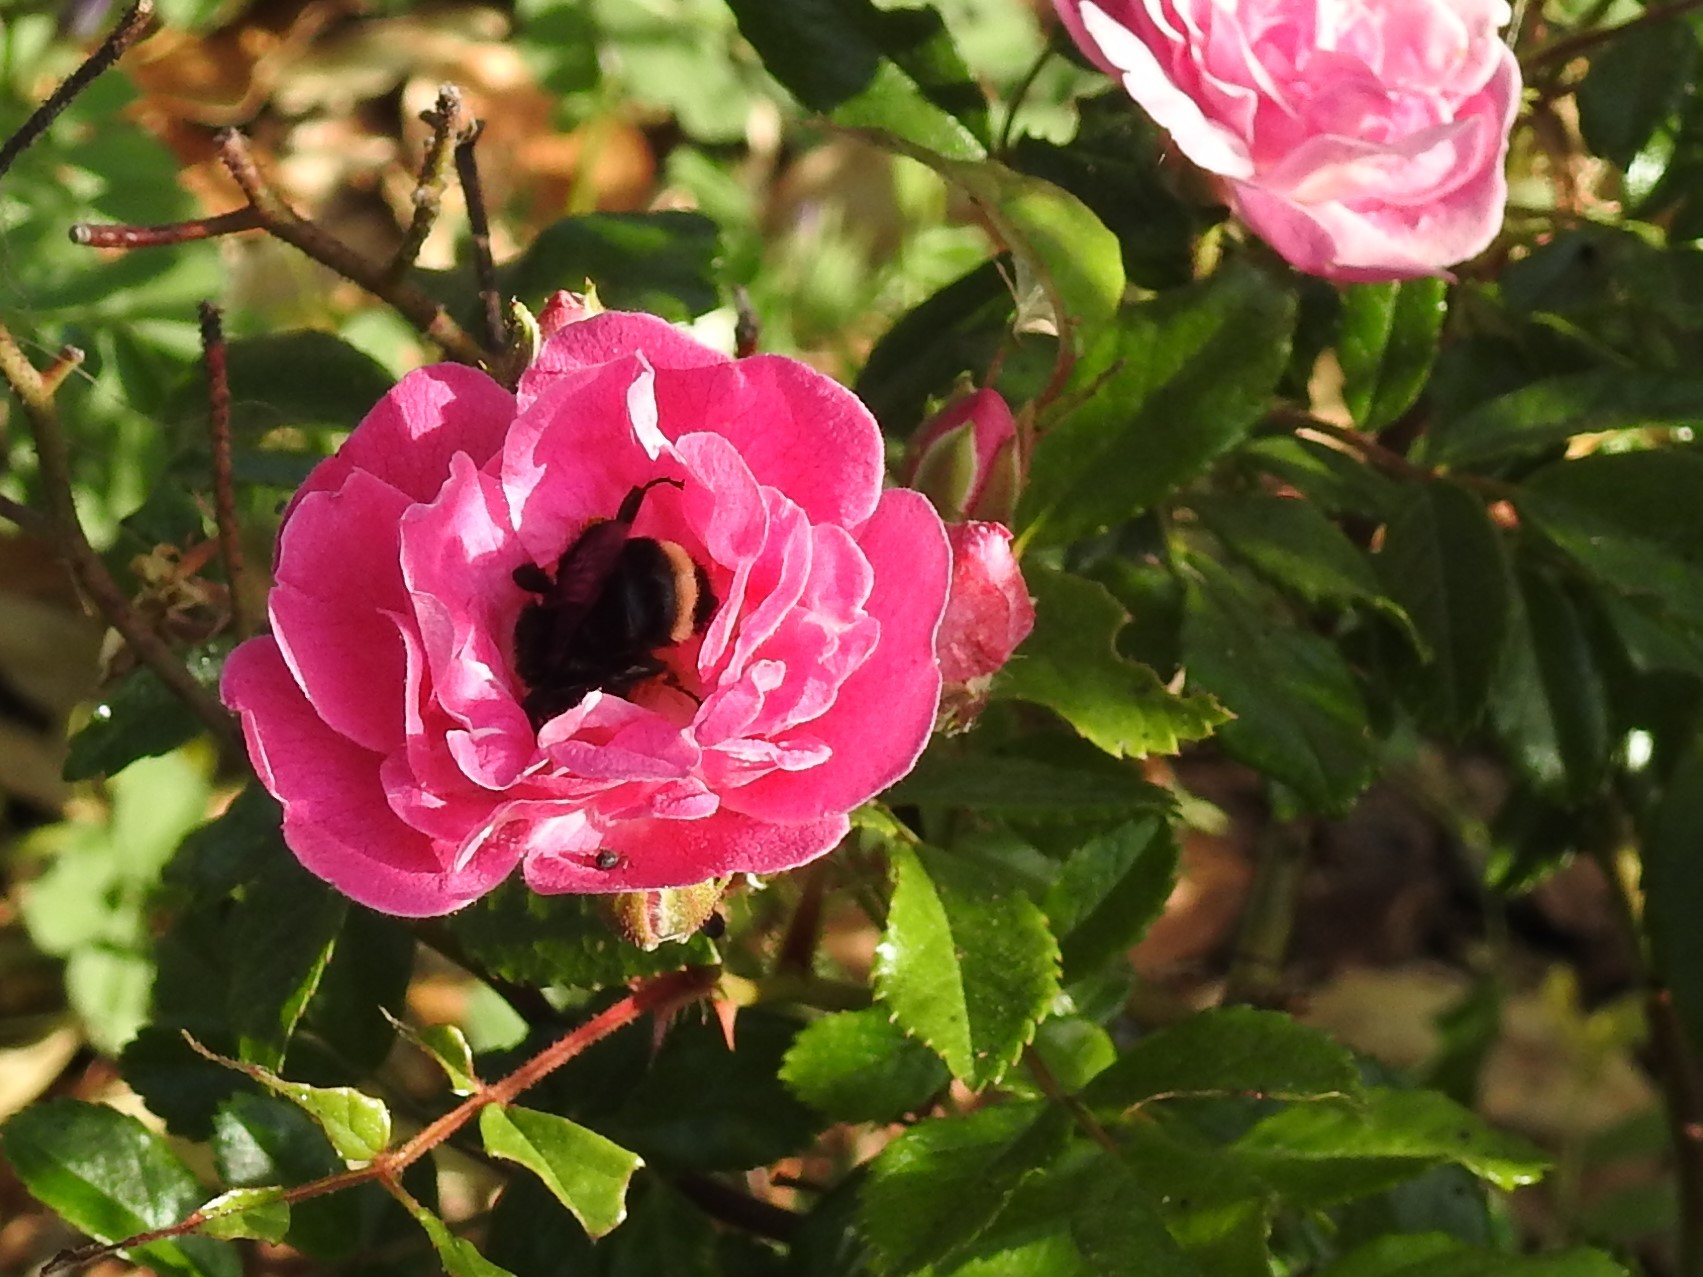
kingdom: Animalia
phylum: Arthropoda
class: Insecta
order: Hymenoptera
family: Apidae
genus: Bombus
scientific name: Bombus
